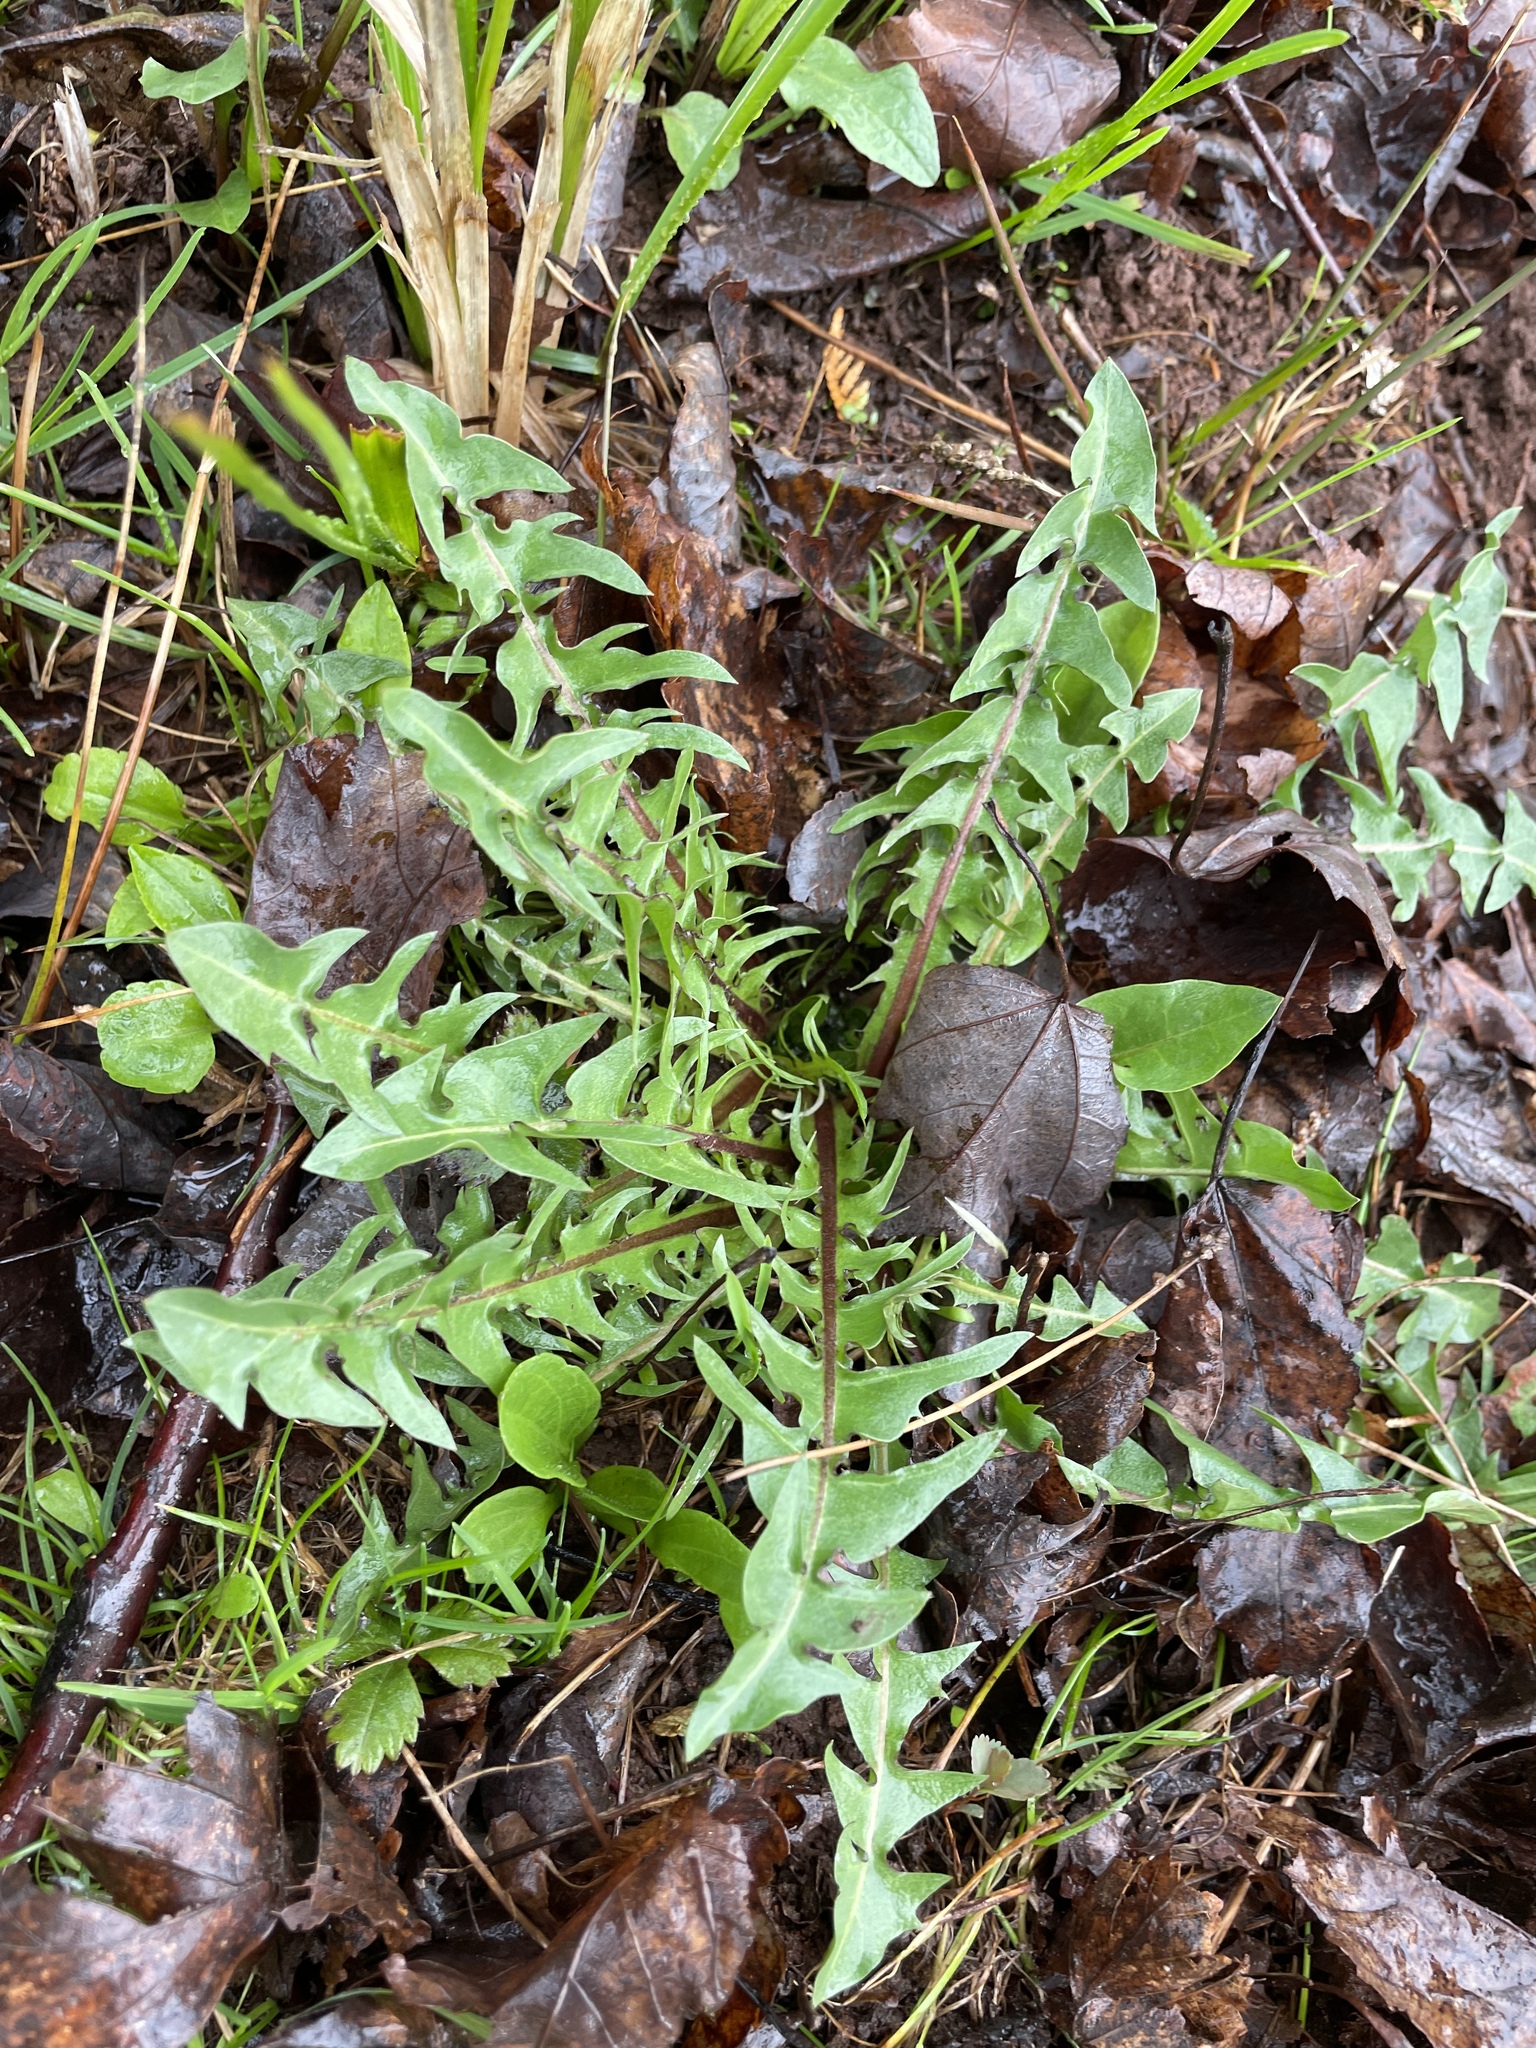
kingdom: Plantae
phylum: Tracheophyta
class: Magnoliopsida
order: Asterales
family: Asteraceae
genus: Taraxacum
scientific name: Taraxacum officinale
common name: Common dandelion
